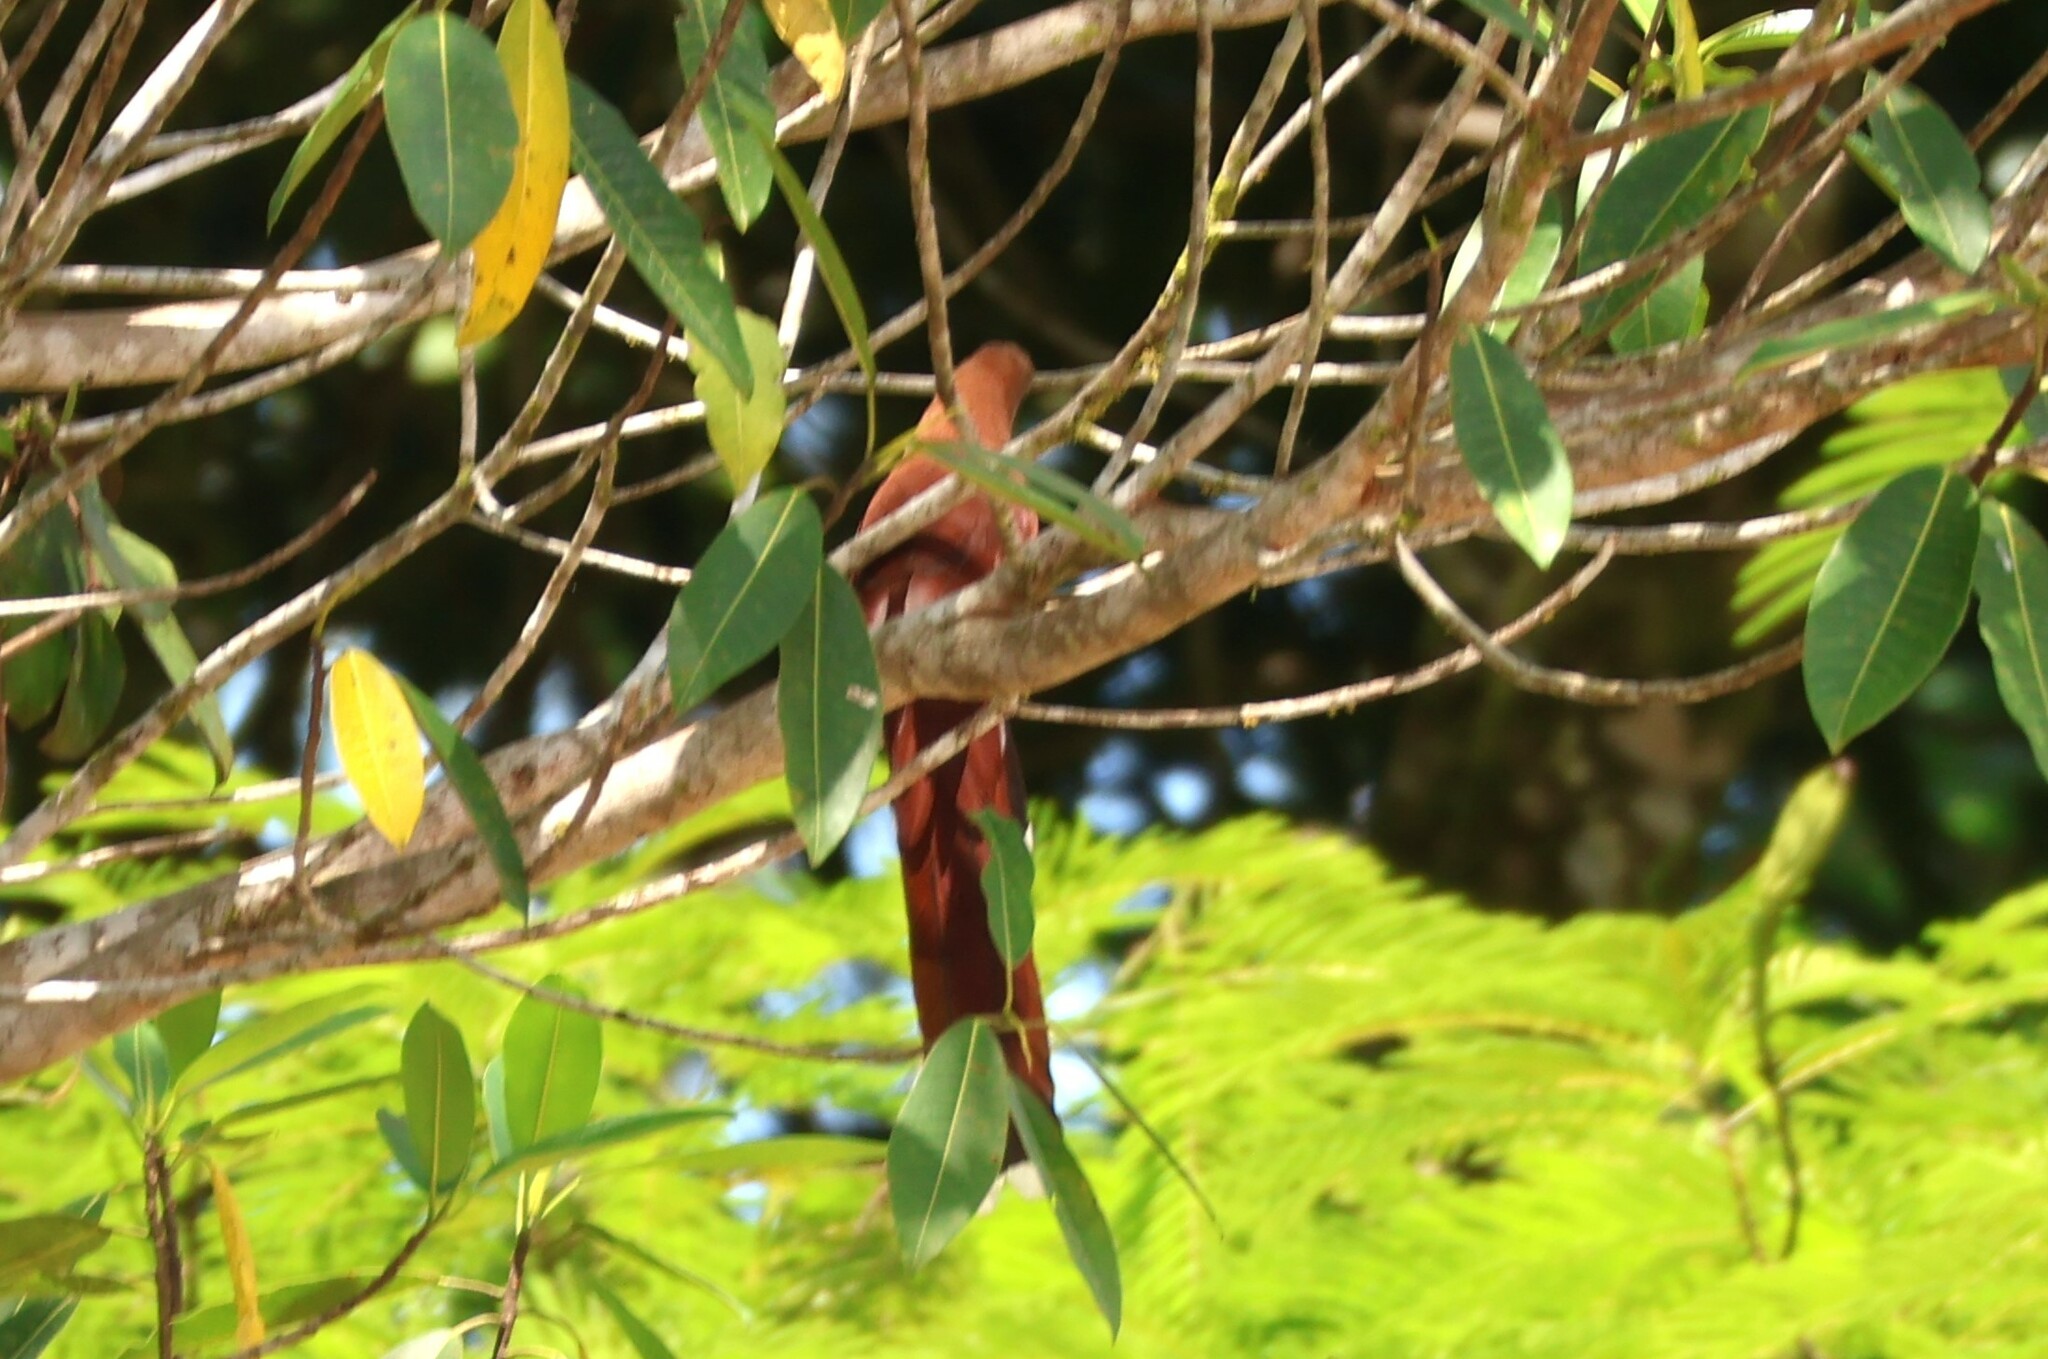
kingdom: Animalia
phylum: Chordata
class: Aves
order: Cuculiformes
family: Cuculidae
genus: Piaya
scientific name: Piaya cayana
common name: Squirrel cuckoo
